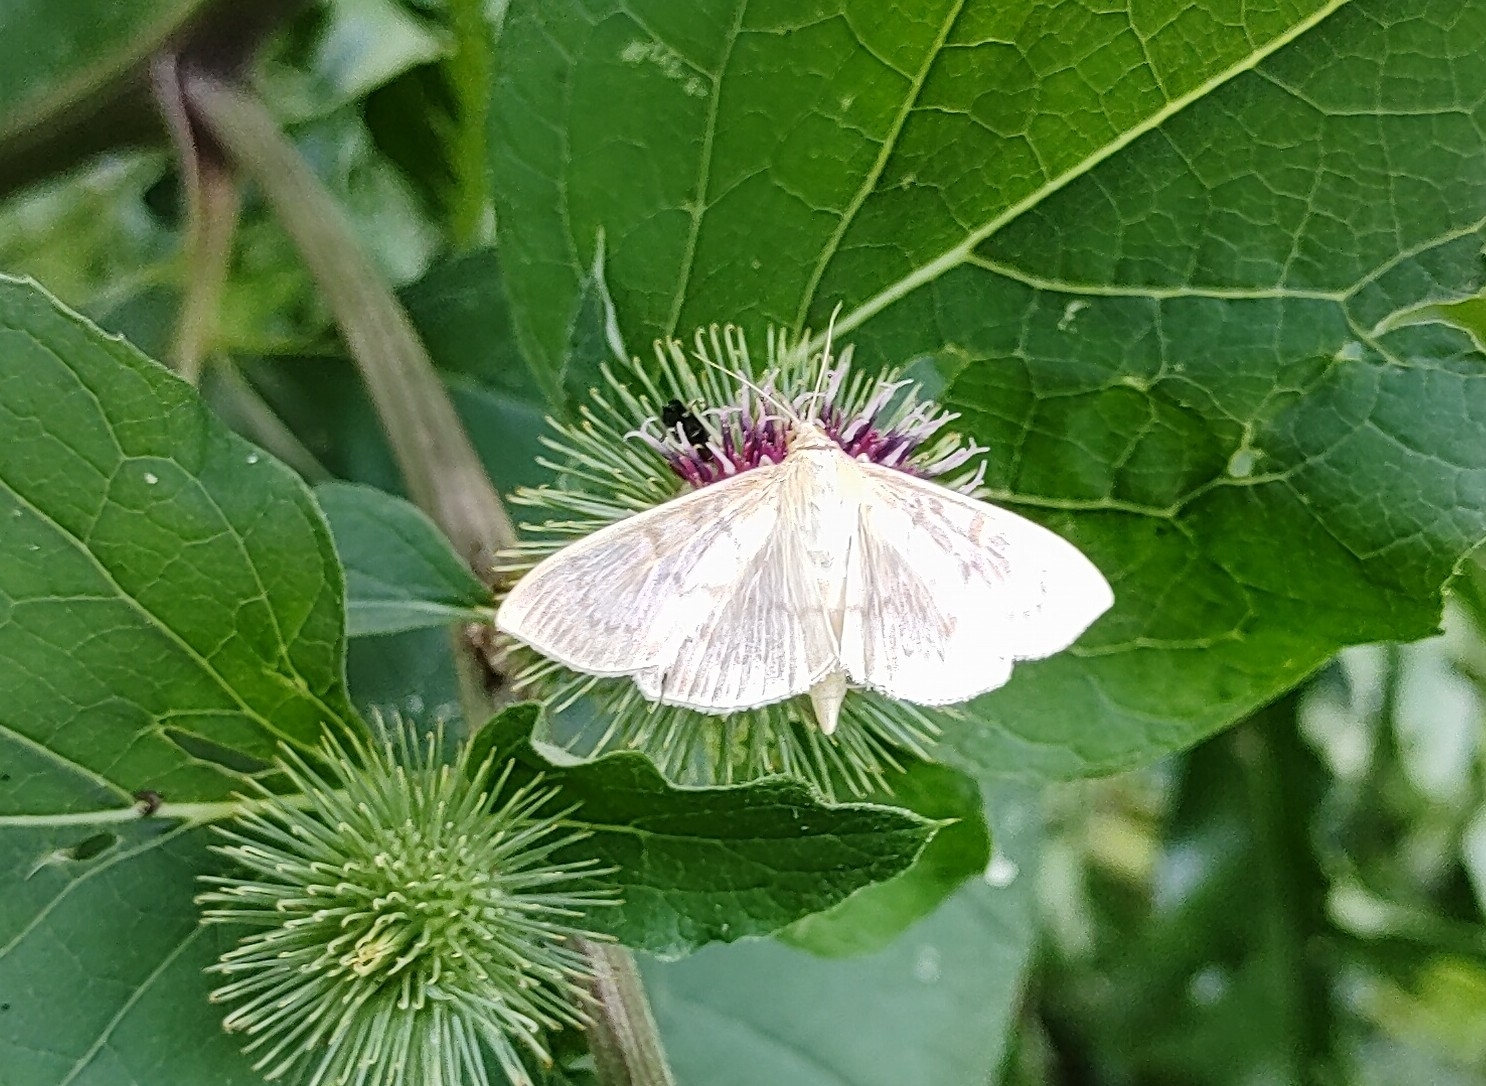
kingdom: Animalia
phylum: Arthropoda
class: Insecta
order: Lepidoptera
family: Crambidae
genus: Patania
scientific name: Patania ruralis
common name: Mother of pearl
